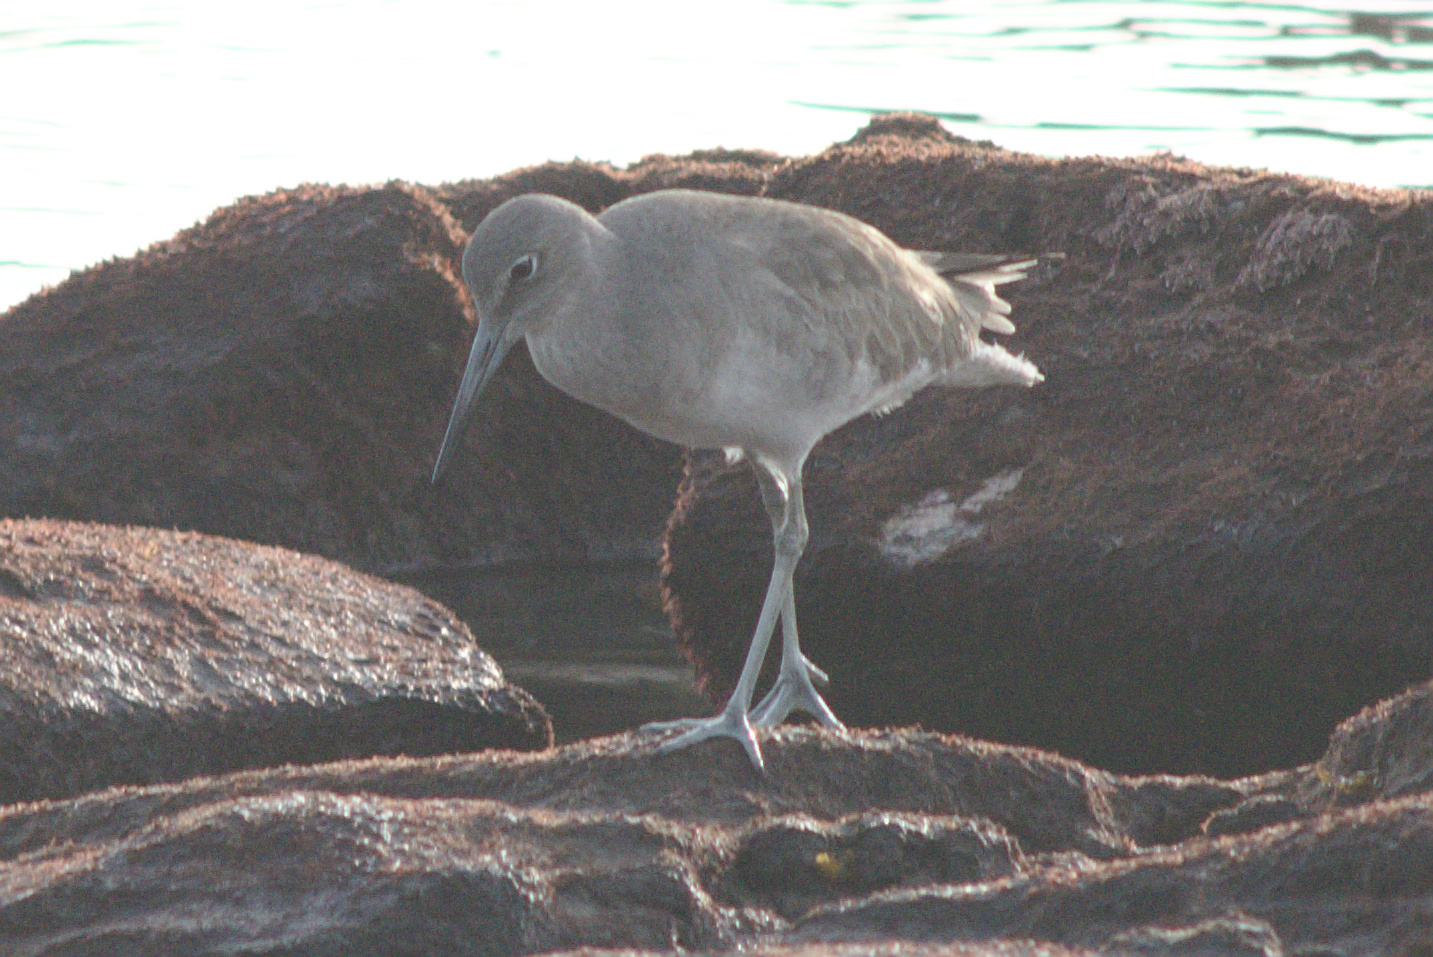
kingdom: Animalia
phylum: Chordata
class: Aves
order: Charadriiformes
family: Scolopacidae
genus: Tringa
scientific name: Tringa semipalmata
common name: Willet
